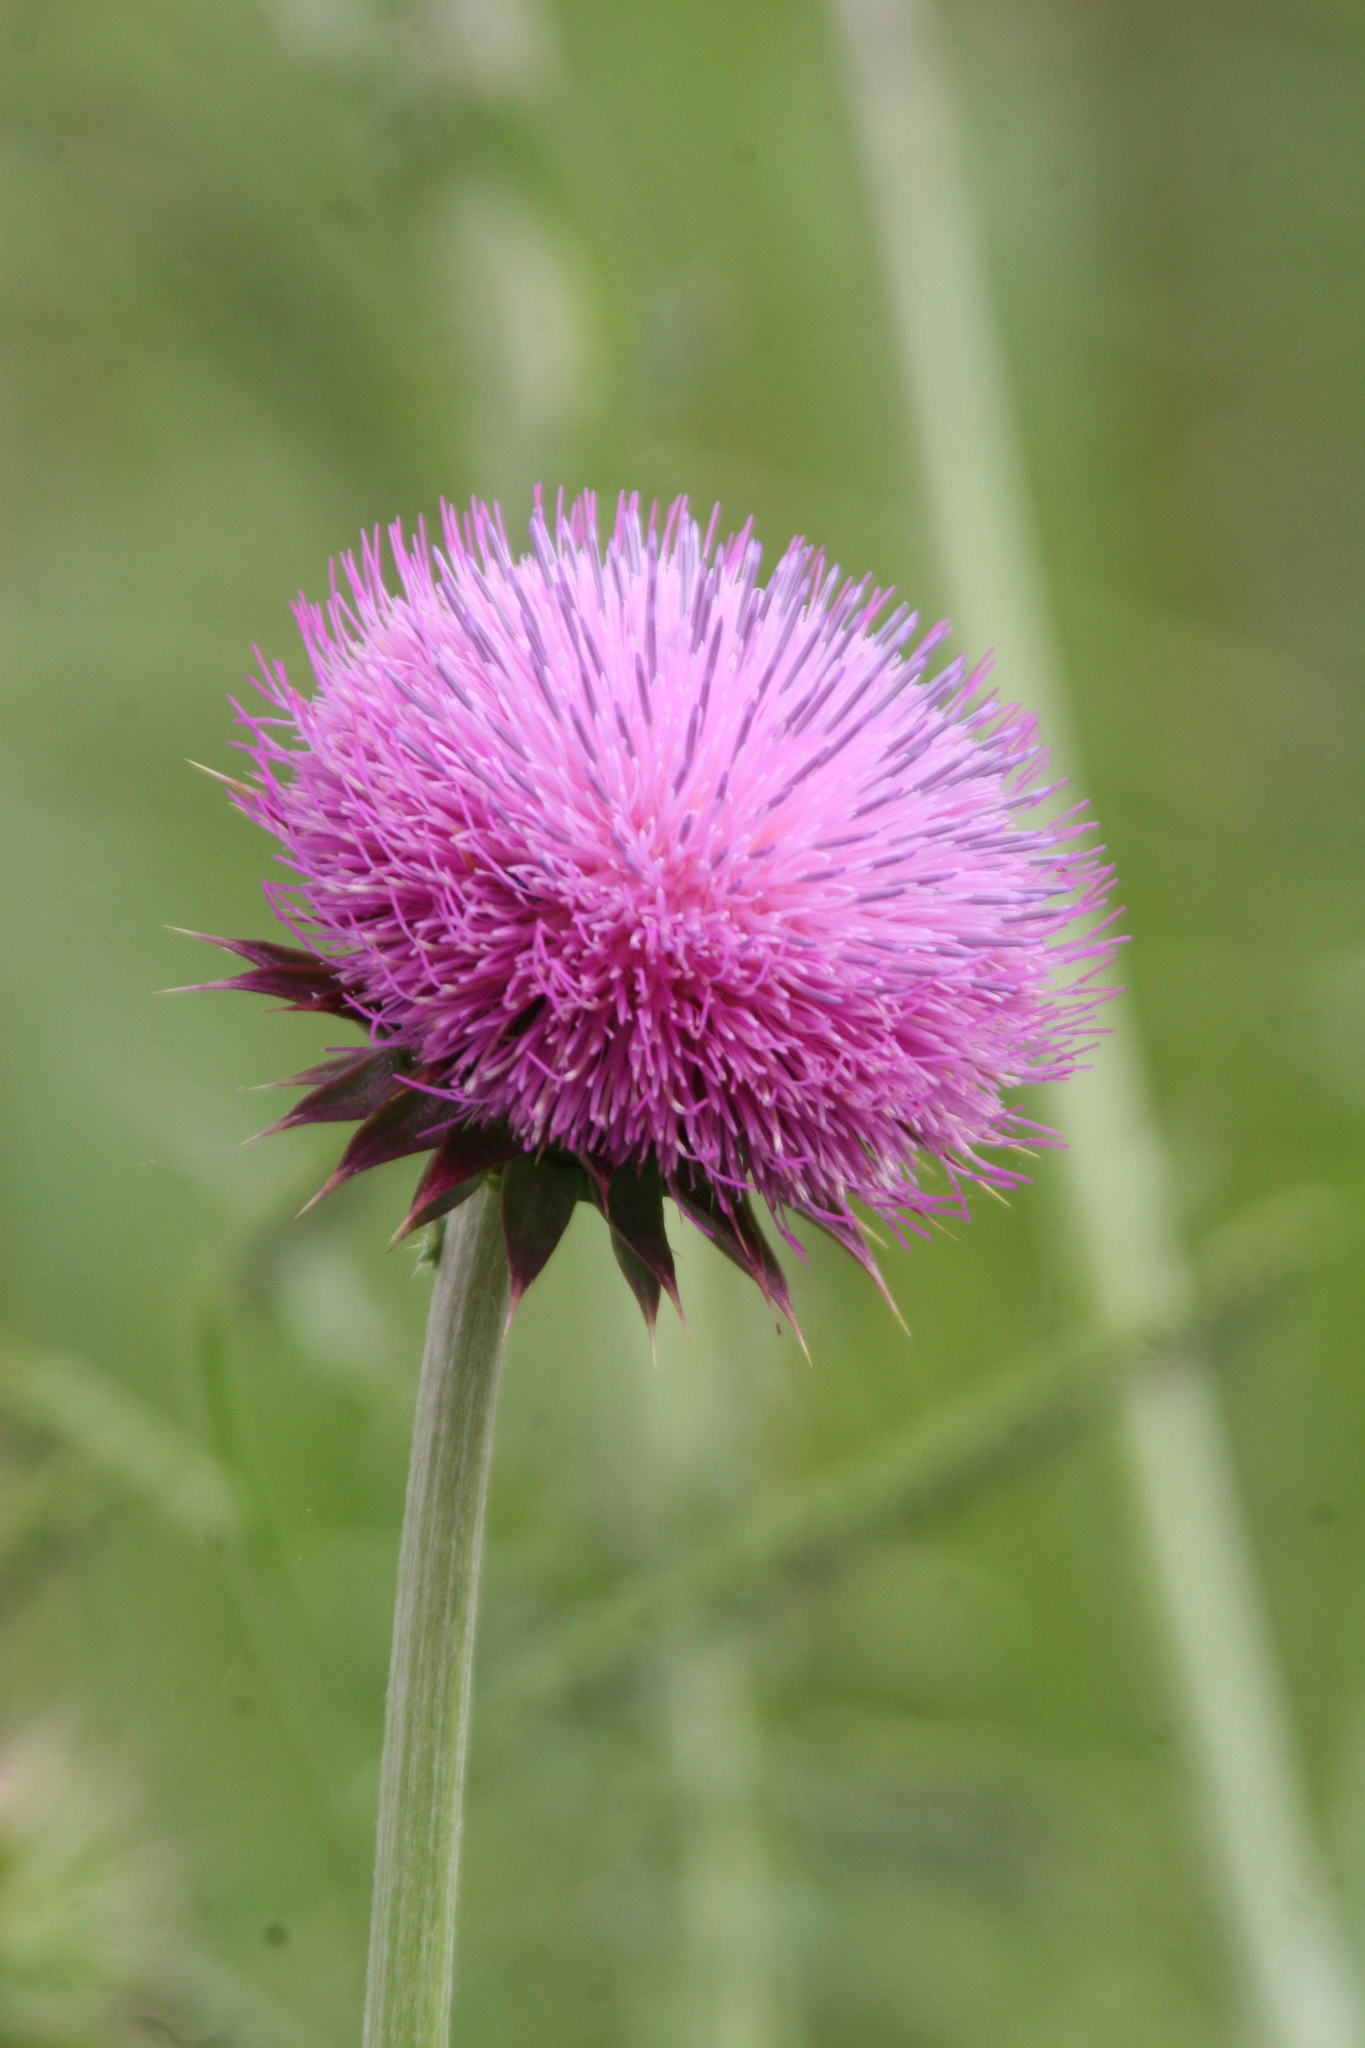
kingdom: Plantae
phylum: Tracheophyta
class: Magnoliopsida
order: Asterales
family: Asteraceae
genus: Carduus
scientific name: Carduus nutans
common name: Musk thistle
